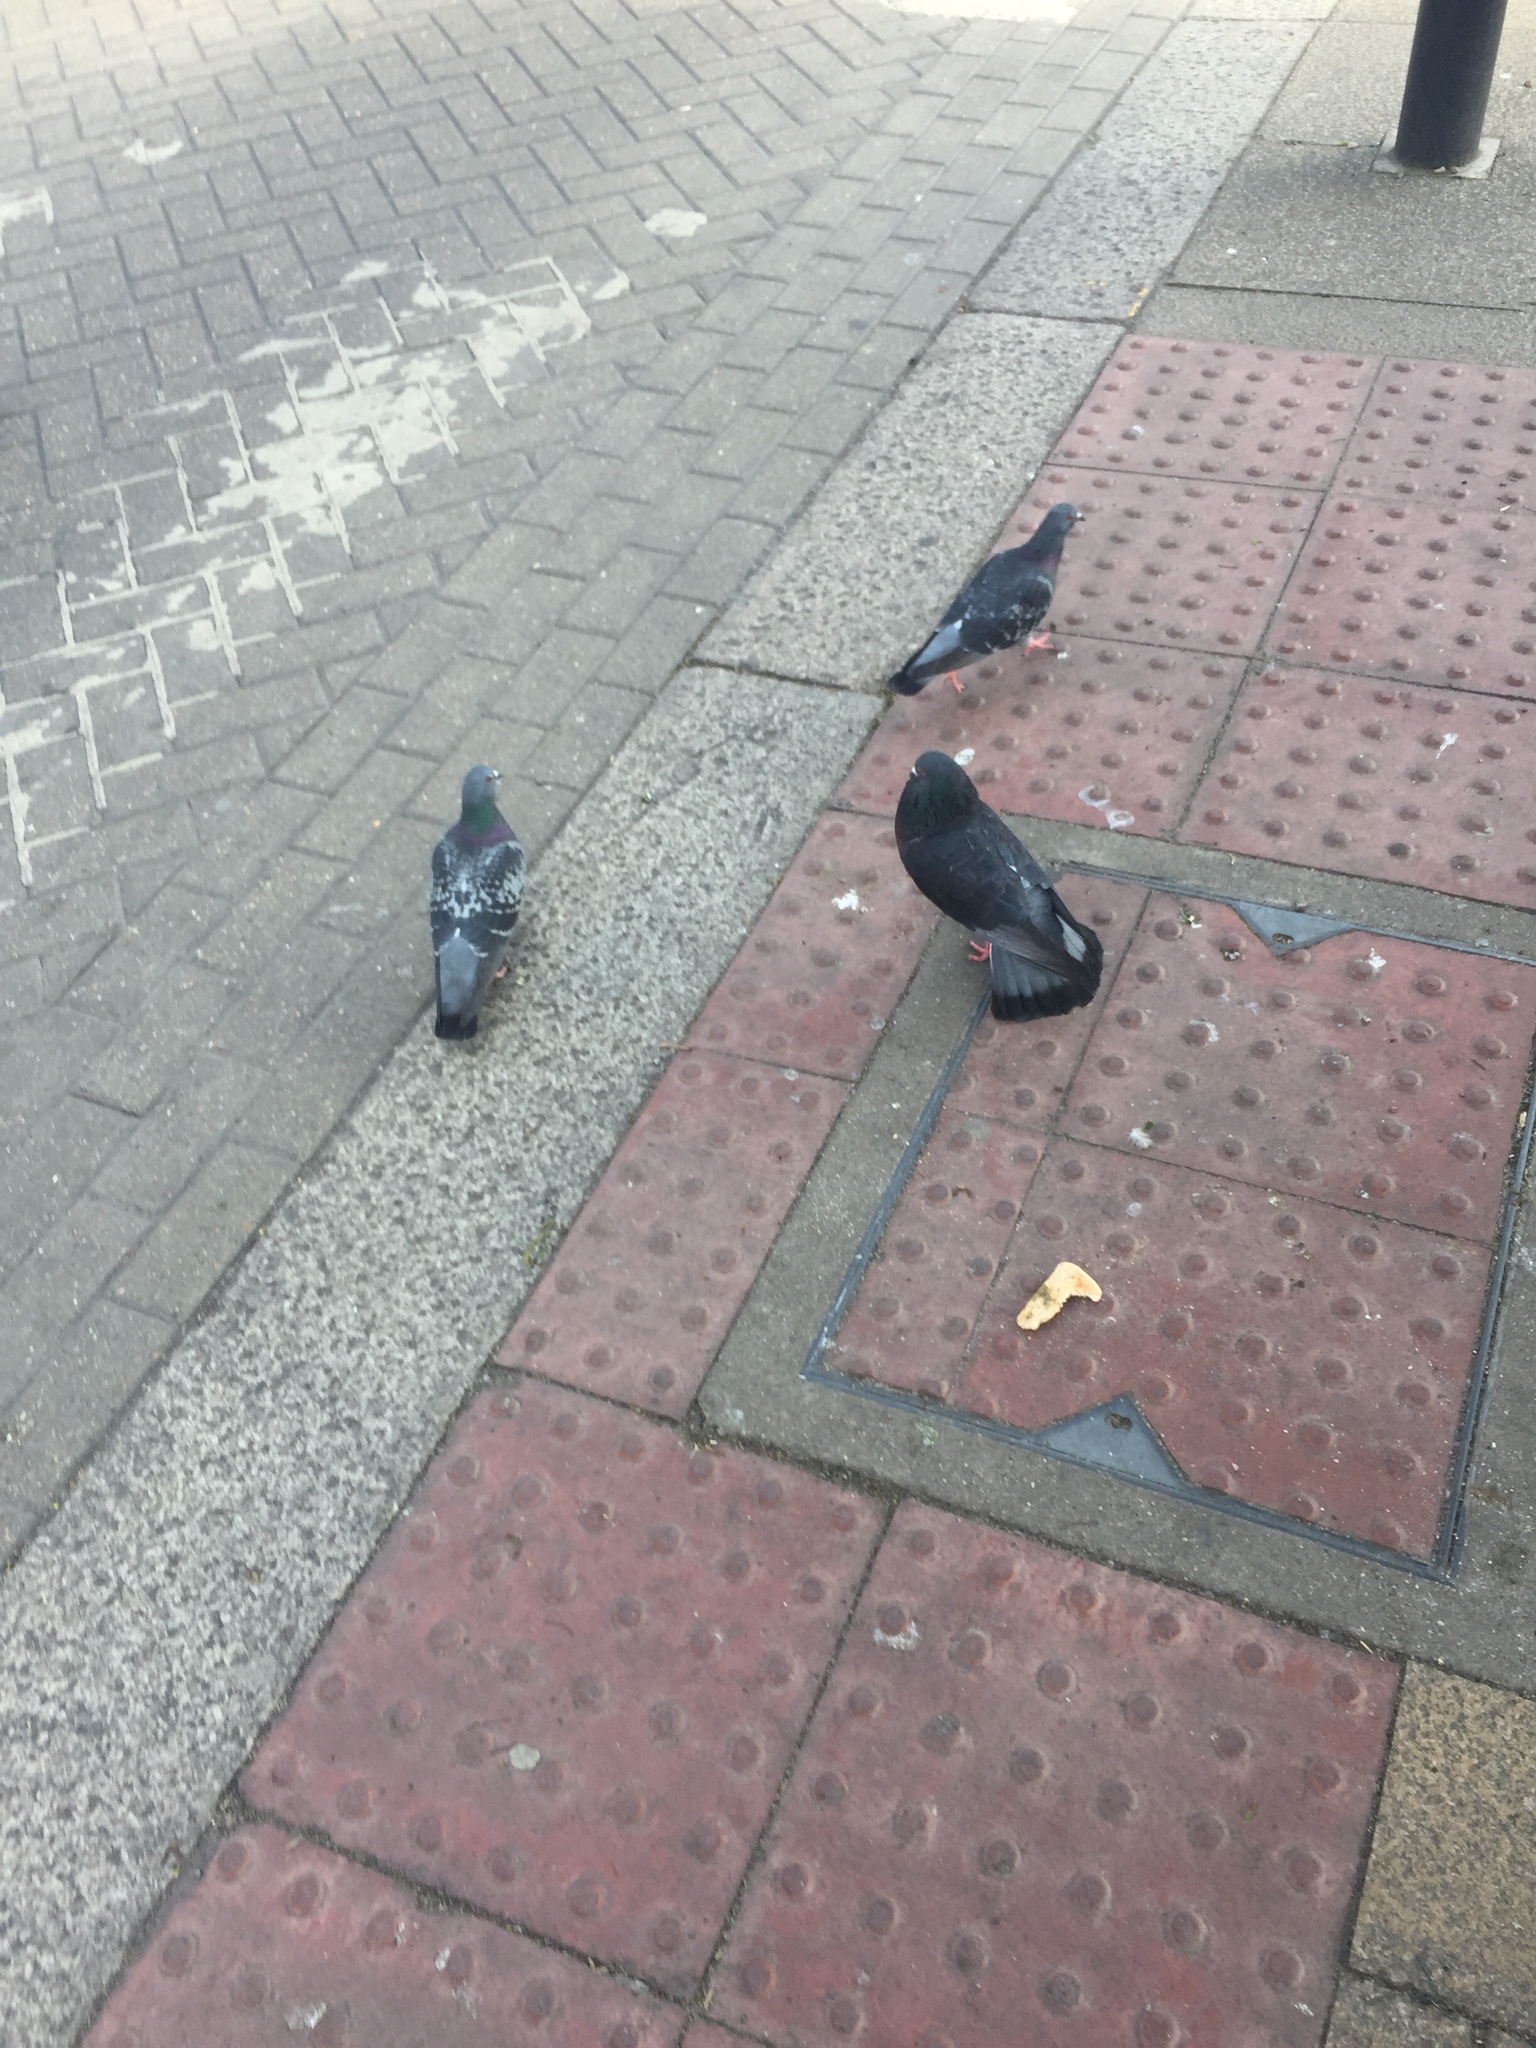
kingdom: Animalia
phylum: Chordata
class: Aves
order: Columbiformes
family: Columbidae
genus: Columba
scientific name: Columba livia
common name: Rock pigeon
